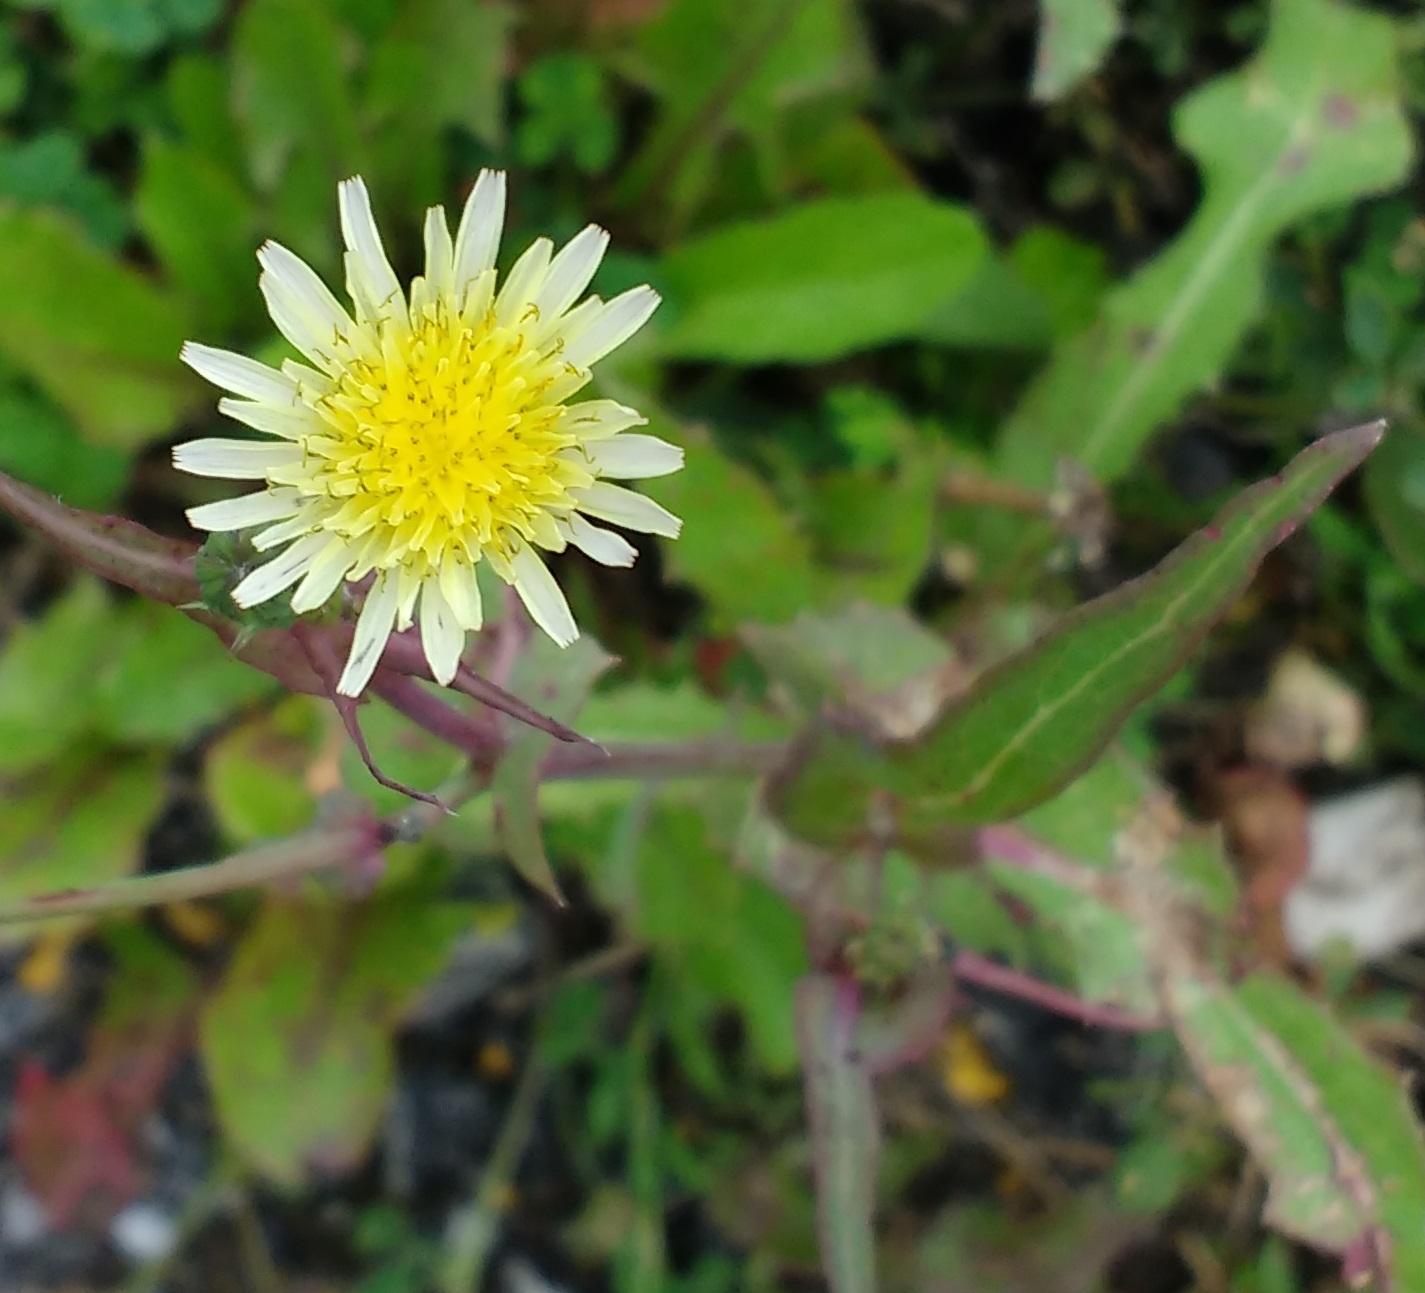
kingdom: Plantae
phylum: Tracheophyta
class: Magnoliopsida
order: Asterales
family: Asteraceae
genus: Sonchus
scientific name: Sonchus oleraceus
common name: Common sowthistle
